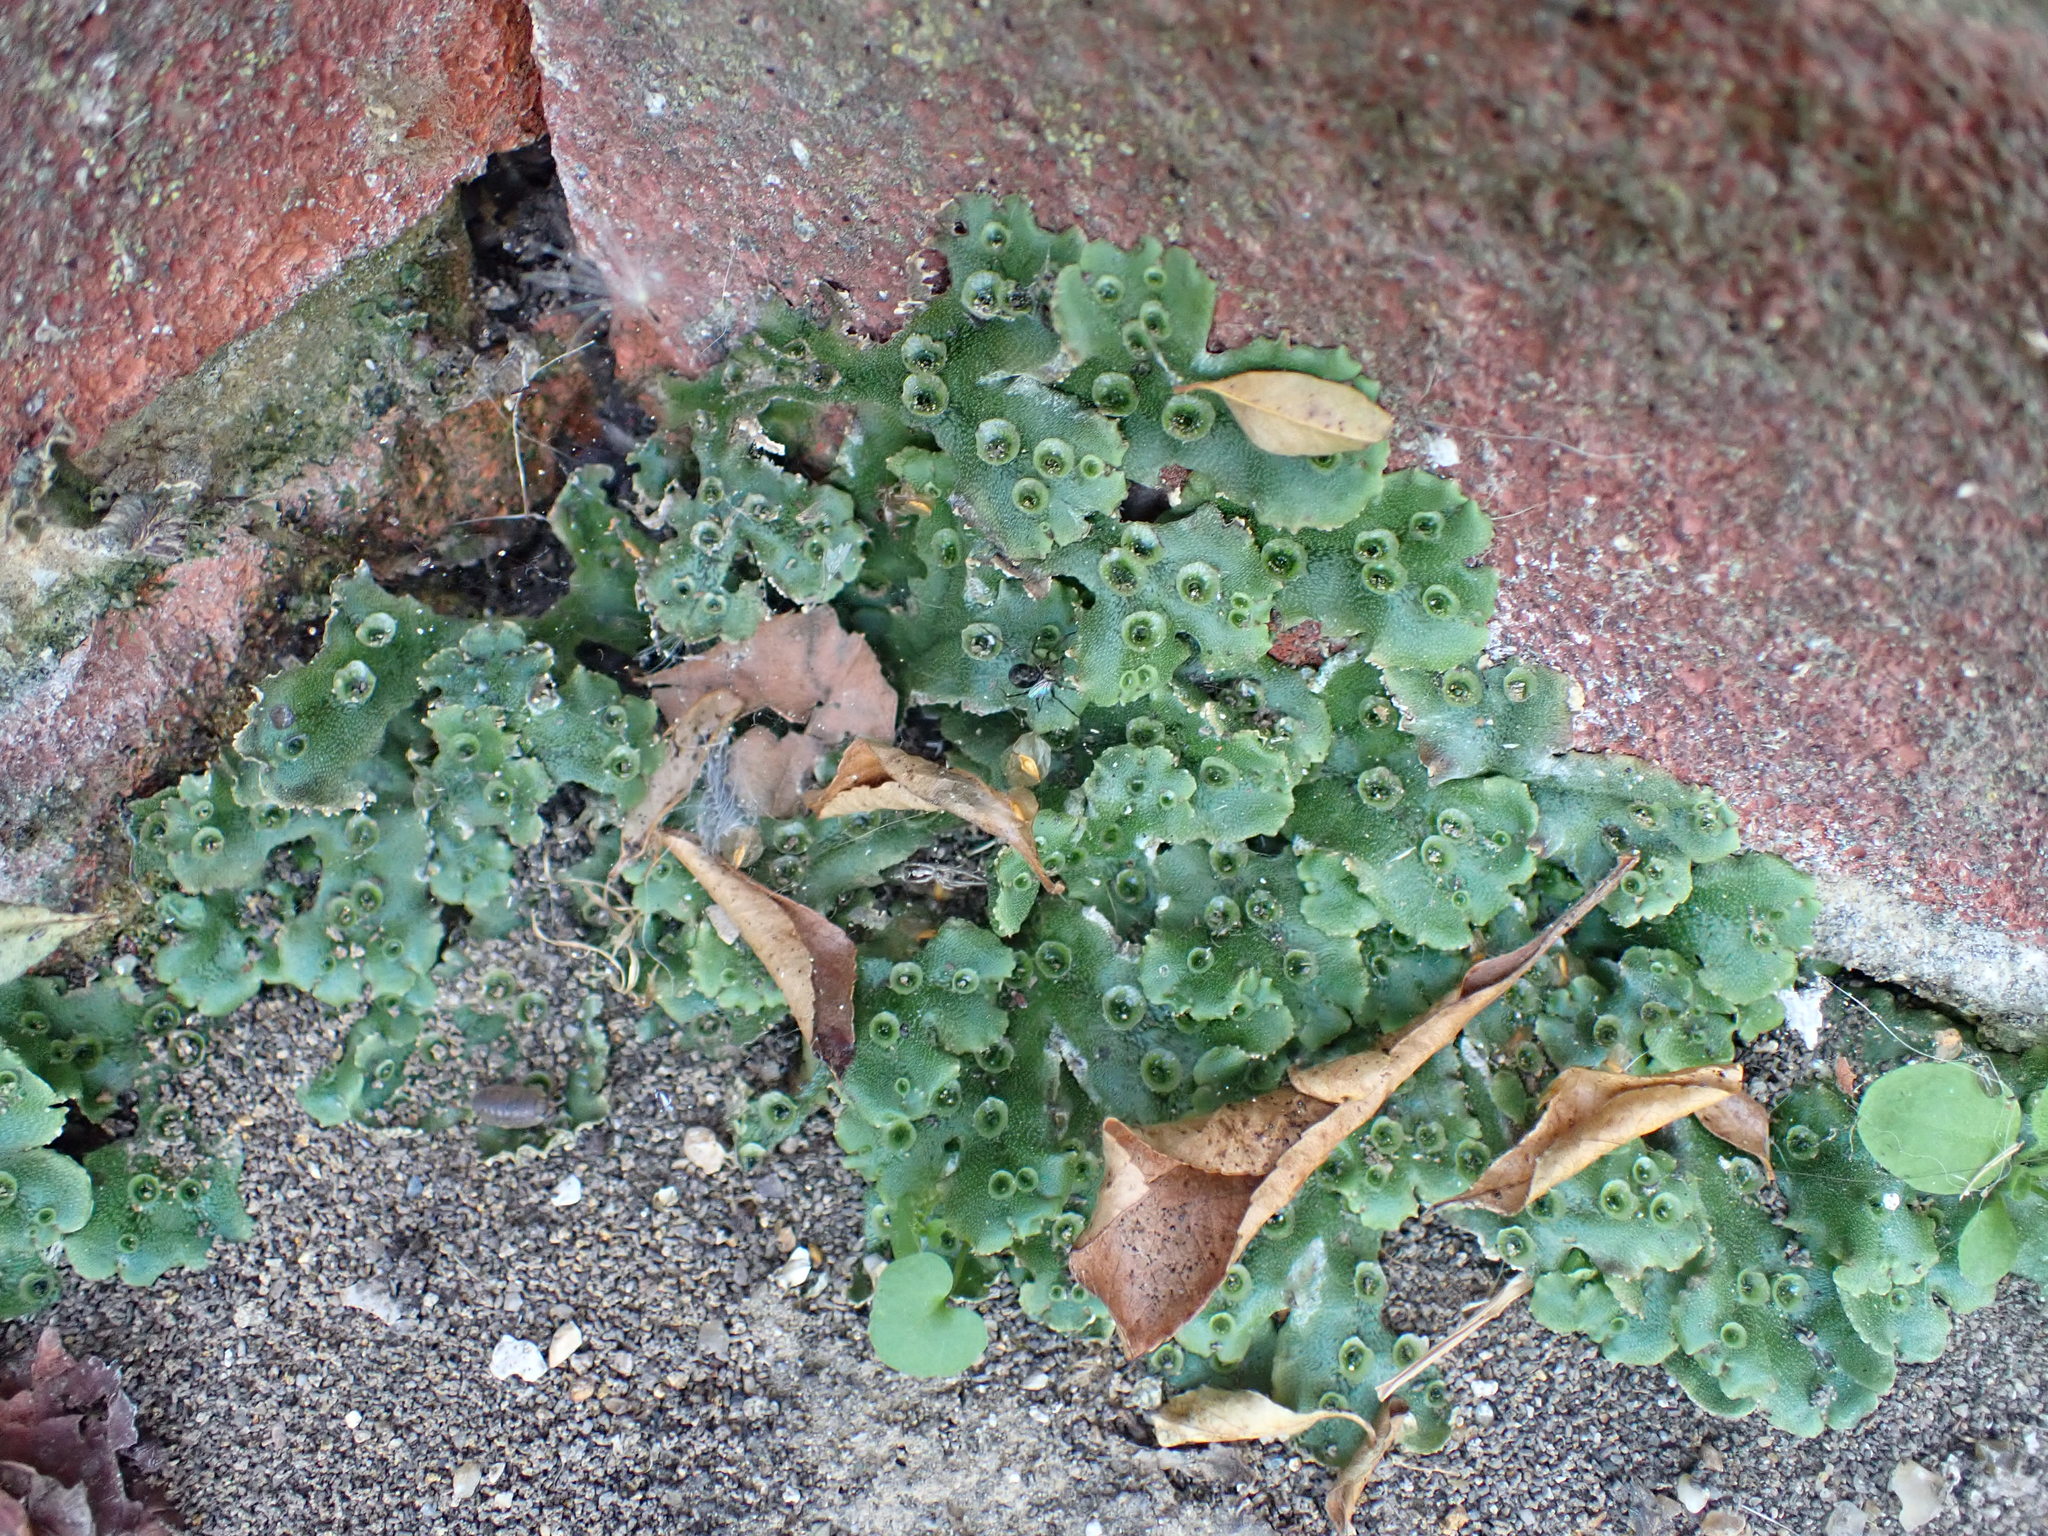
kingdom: Plantae
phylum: Marchantiophyta
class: Marchantiopsida
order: Marchantiales
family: Marchantiaceae
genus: Marchantia
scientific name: Marchantia polymorpha
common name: Common liverwort
